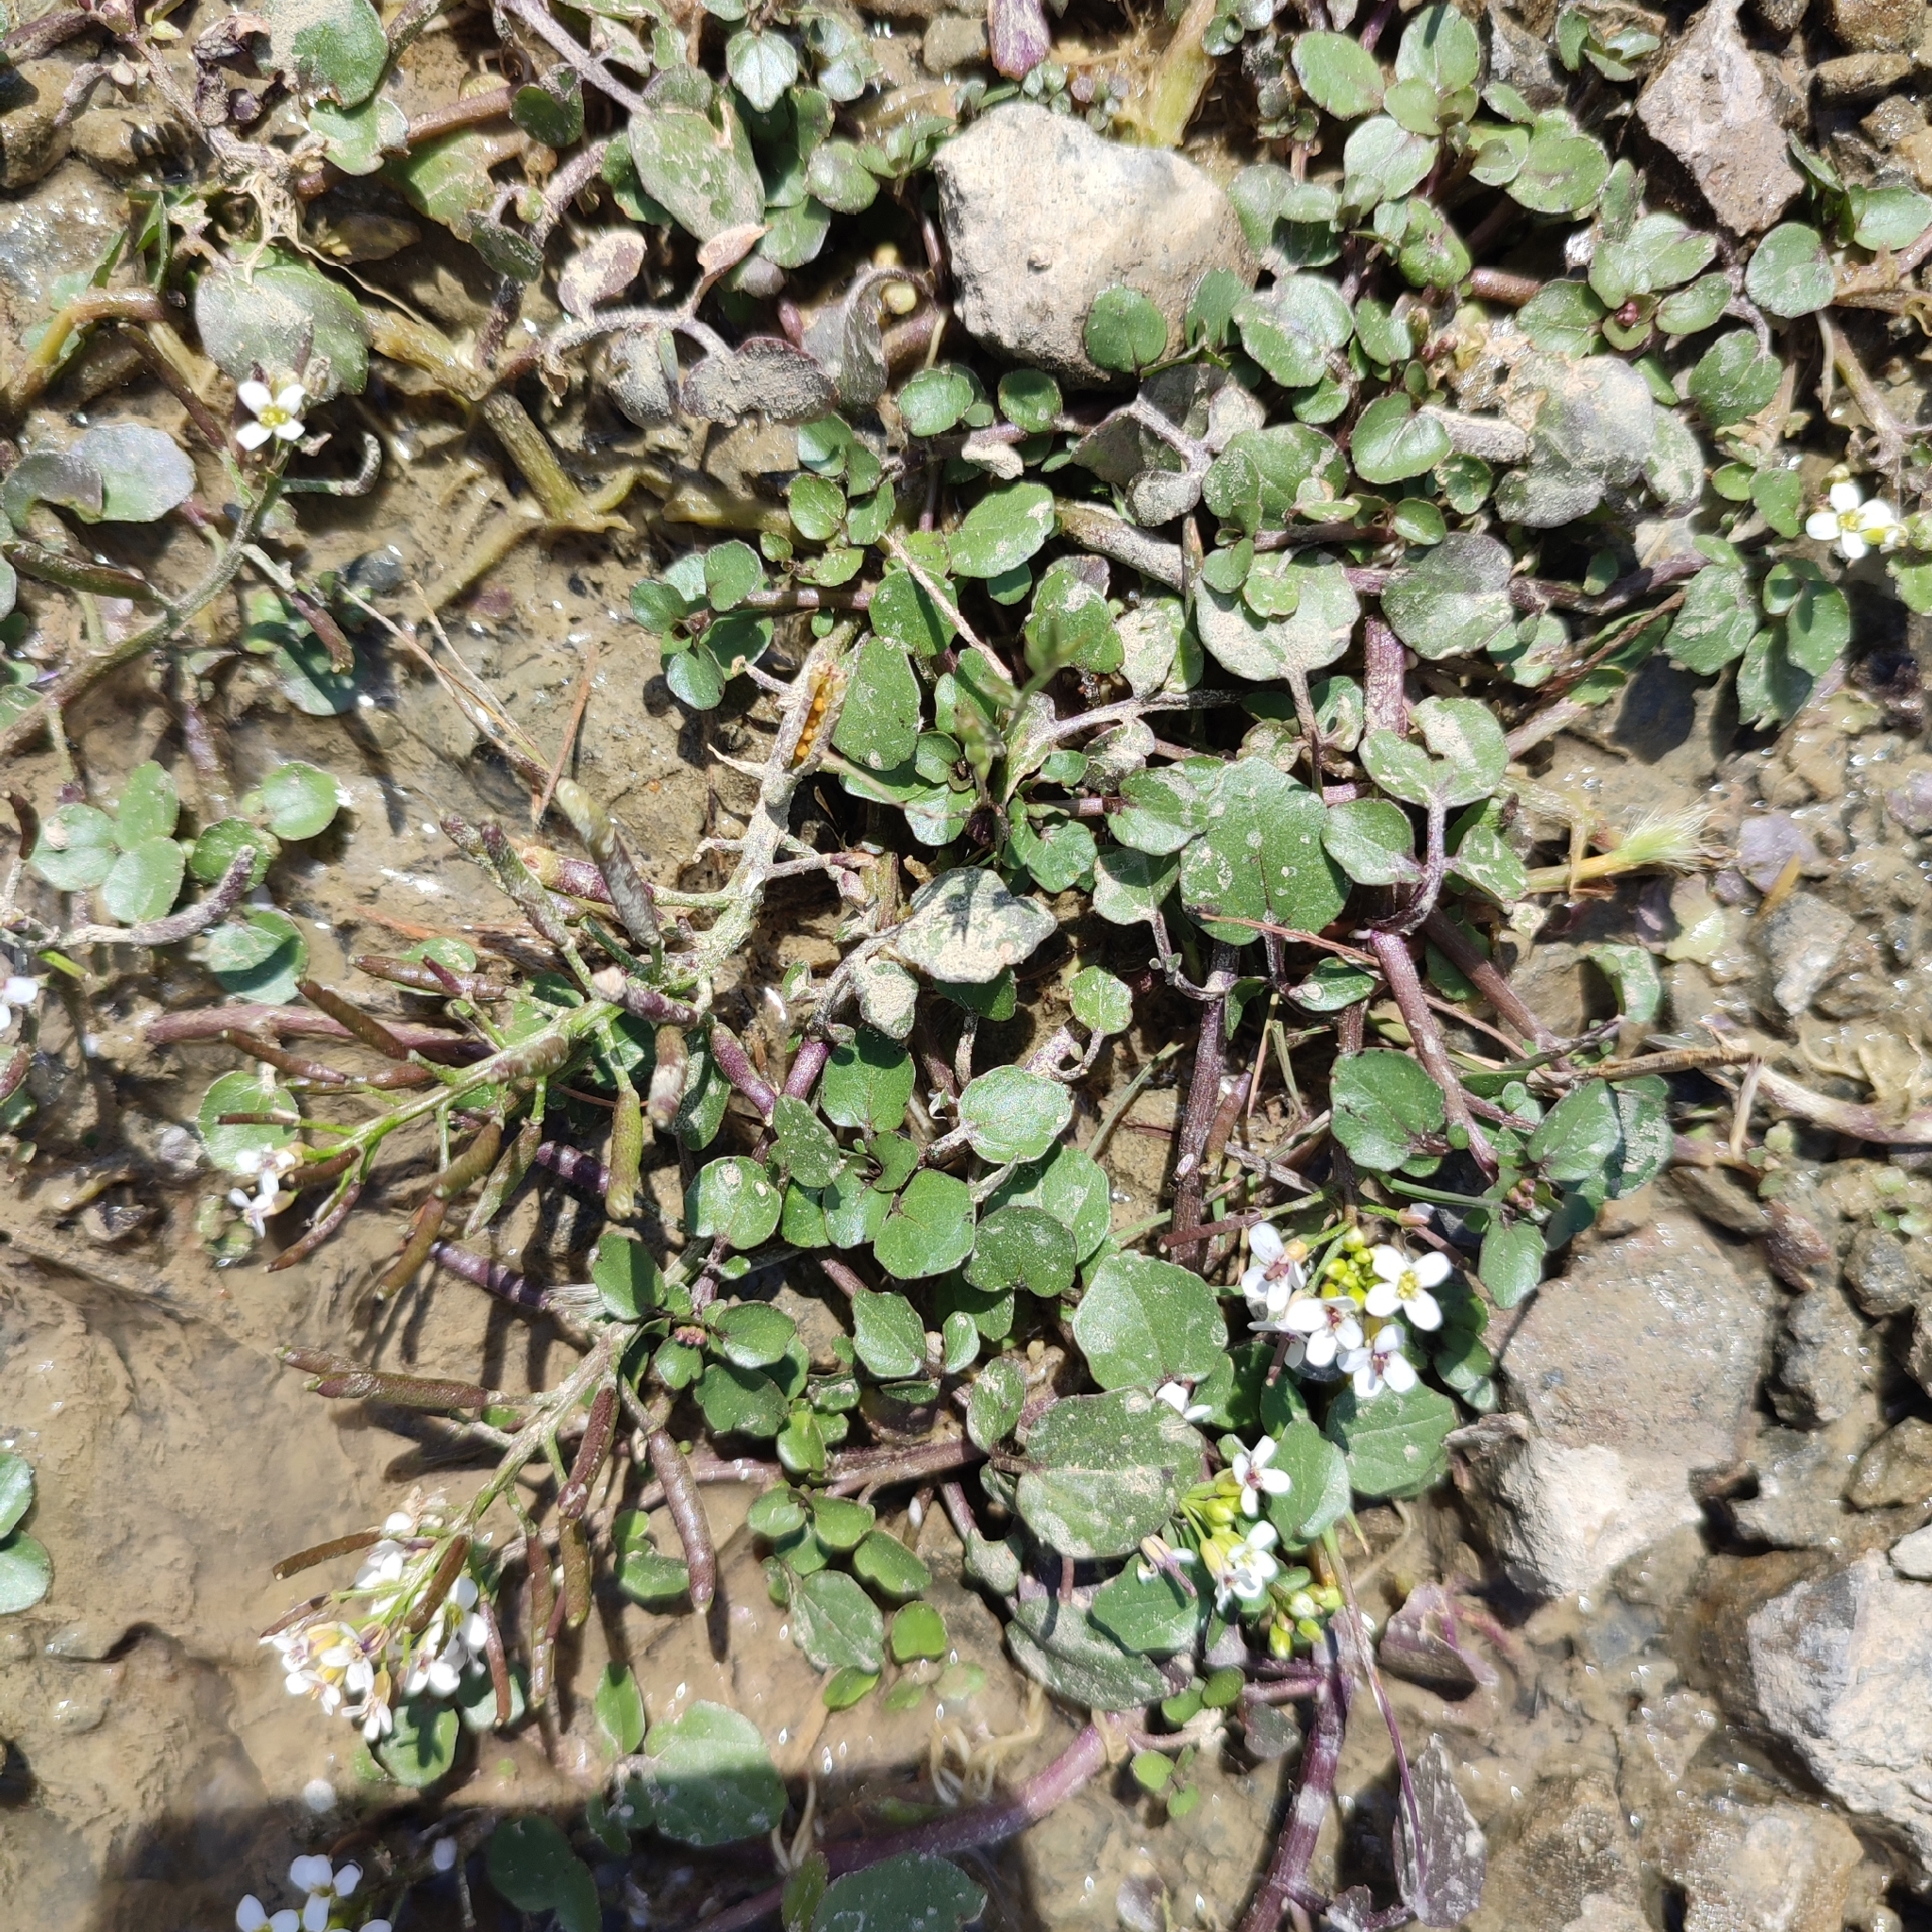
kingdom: Plantae
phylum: Tracheophyta
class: Magnoliopsida
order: Brassicales
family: Brassicaceae
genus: Nasturtium
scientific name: Nasturtium officinale
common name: Watercress
